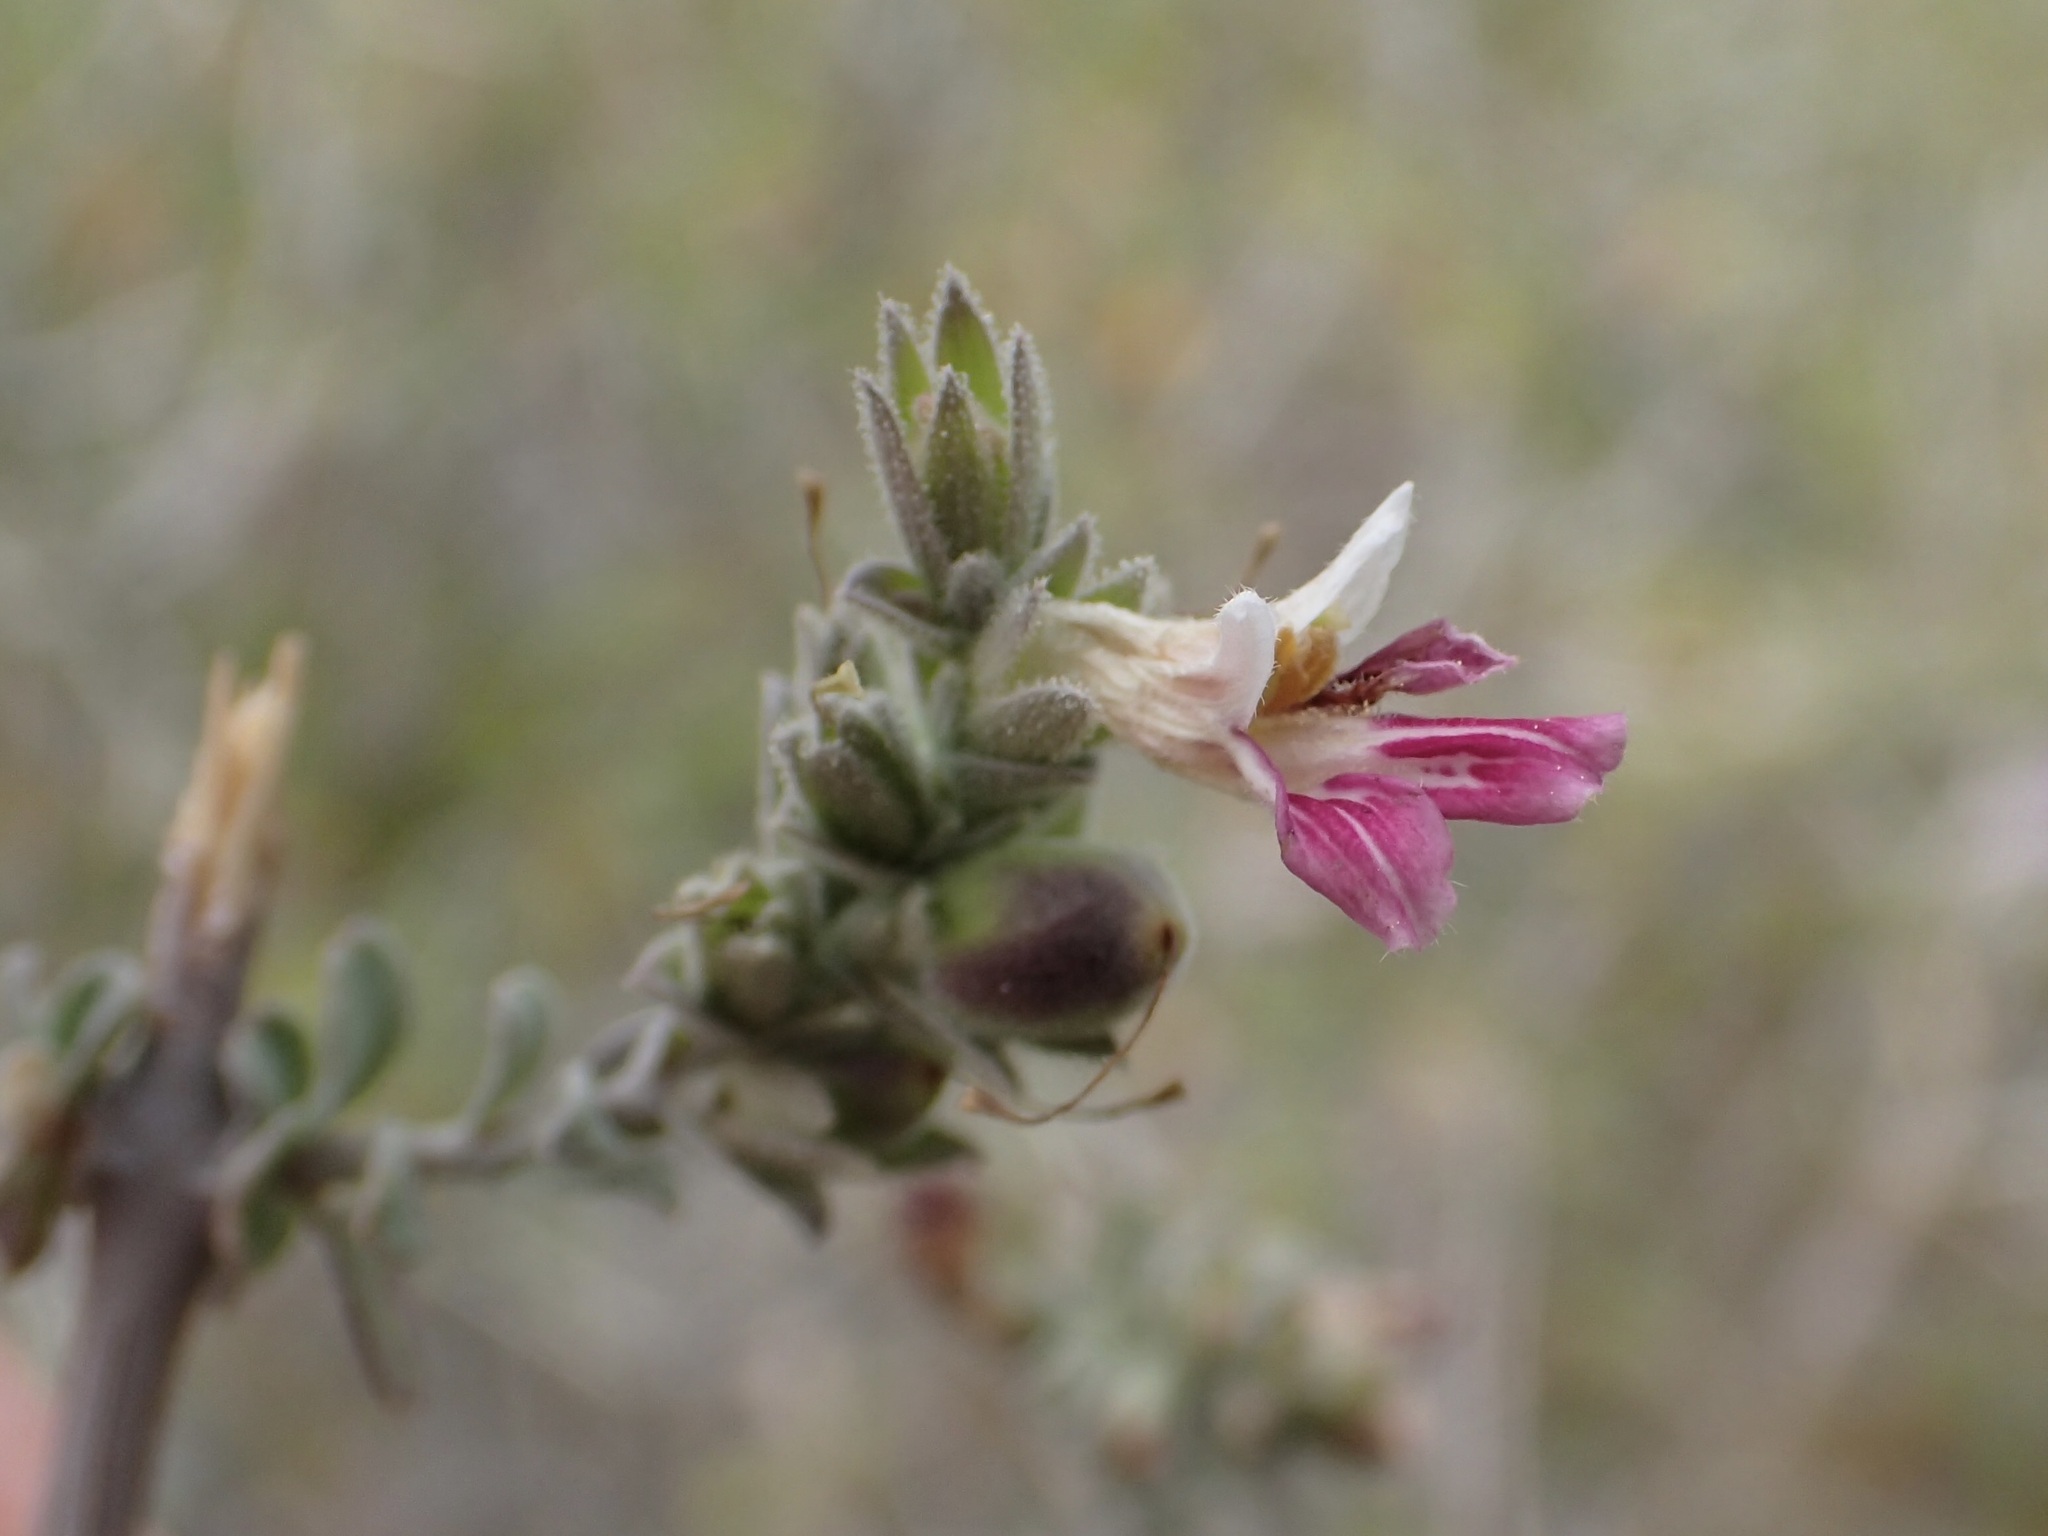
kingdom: Plantae
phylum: Tracheophyta
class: Magnoliopsida
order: Lamiales
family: Acanthaceae
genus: Holographis
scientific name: Holographis virgata
